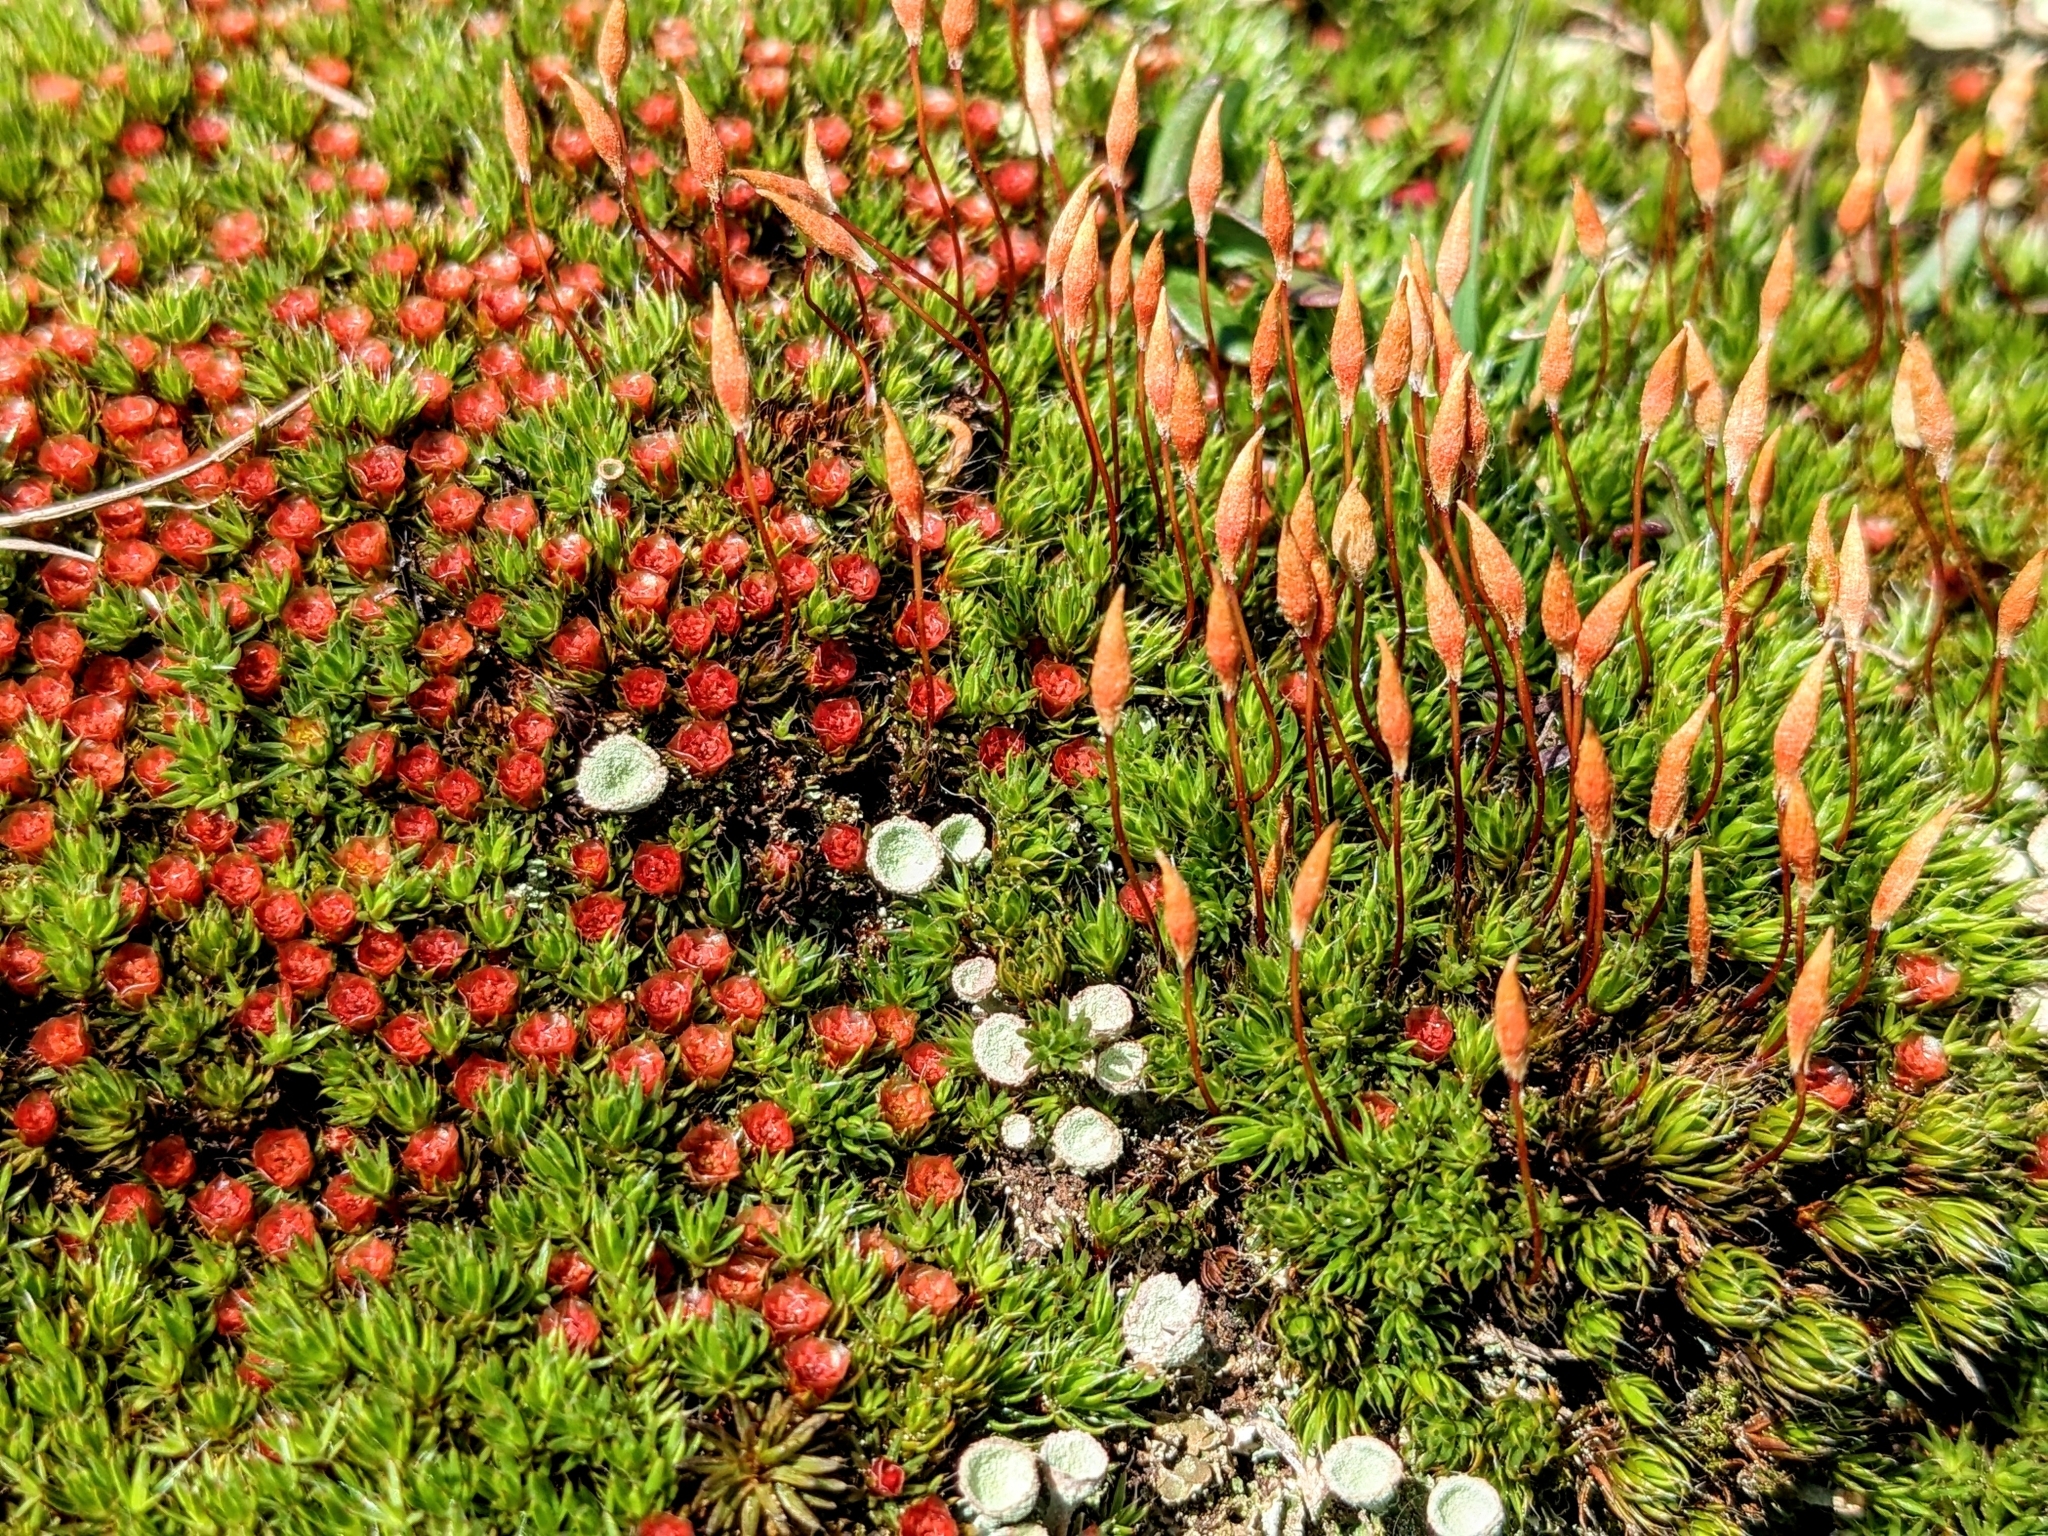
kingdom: Plantae
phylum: Bryophyta
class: Polytrichopsida
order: Polytrichales
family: Polytrichaceae
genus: Polytrichum
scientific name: Polytrichum piliferum
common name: Bristly haircap
